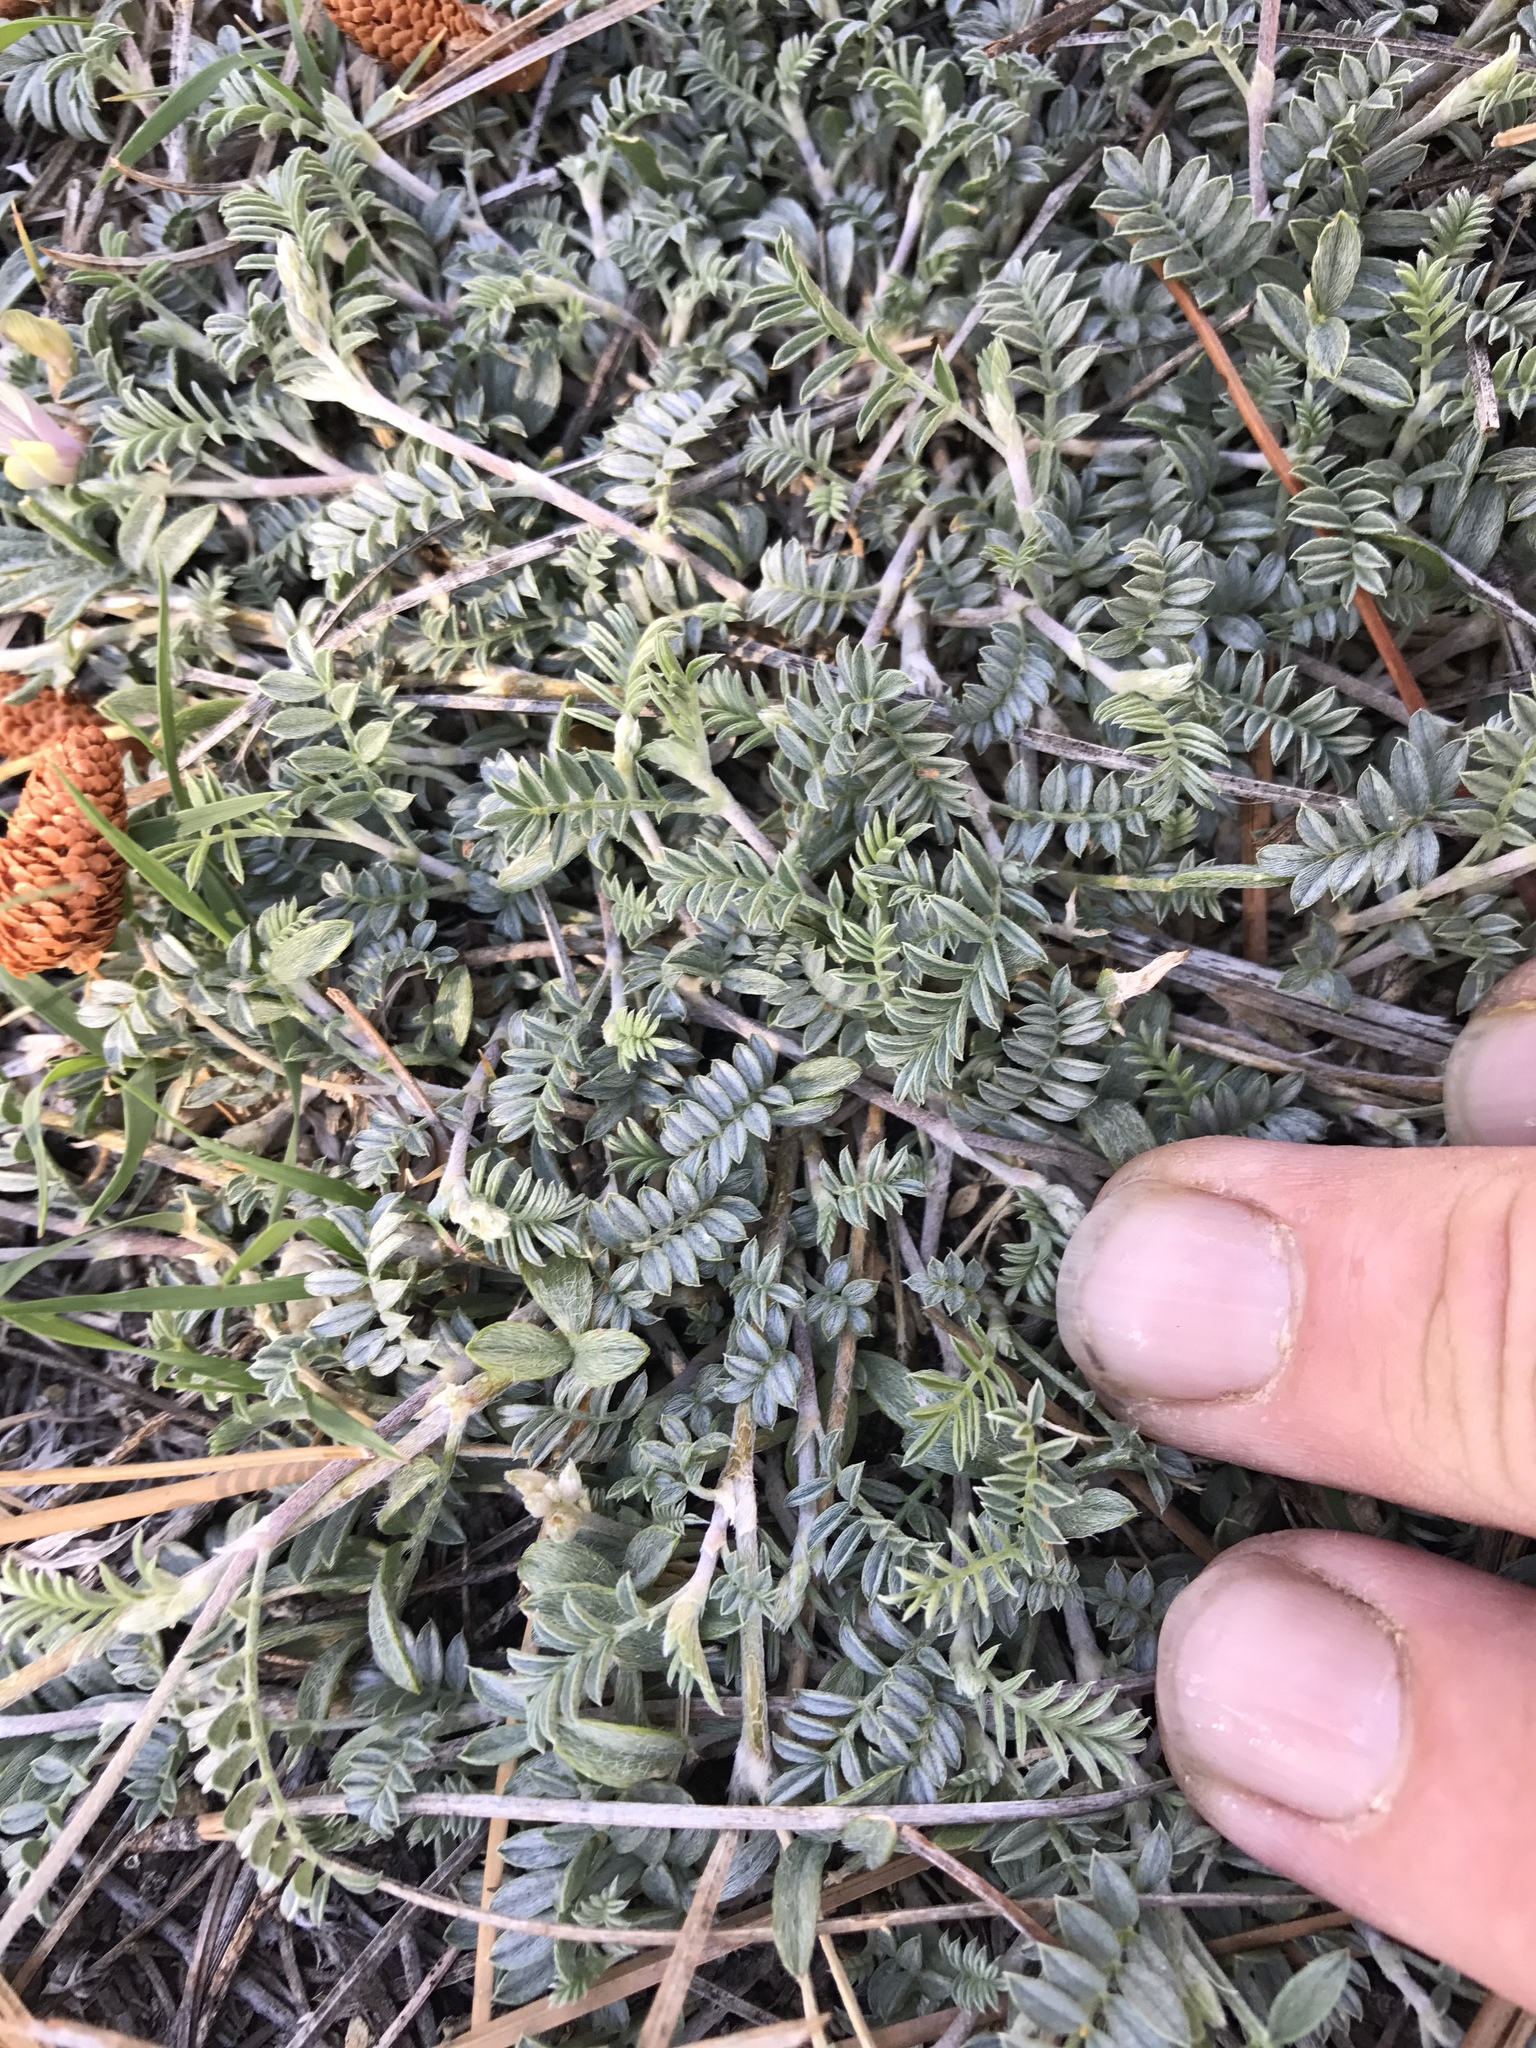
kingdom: Plantae
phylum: Tracheophyta
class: Magnoliopsida
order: Fabales
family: Fabaceae
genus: Astragalus
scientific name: Astragalus humistratus
